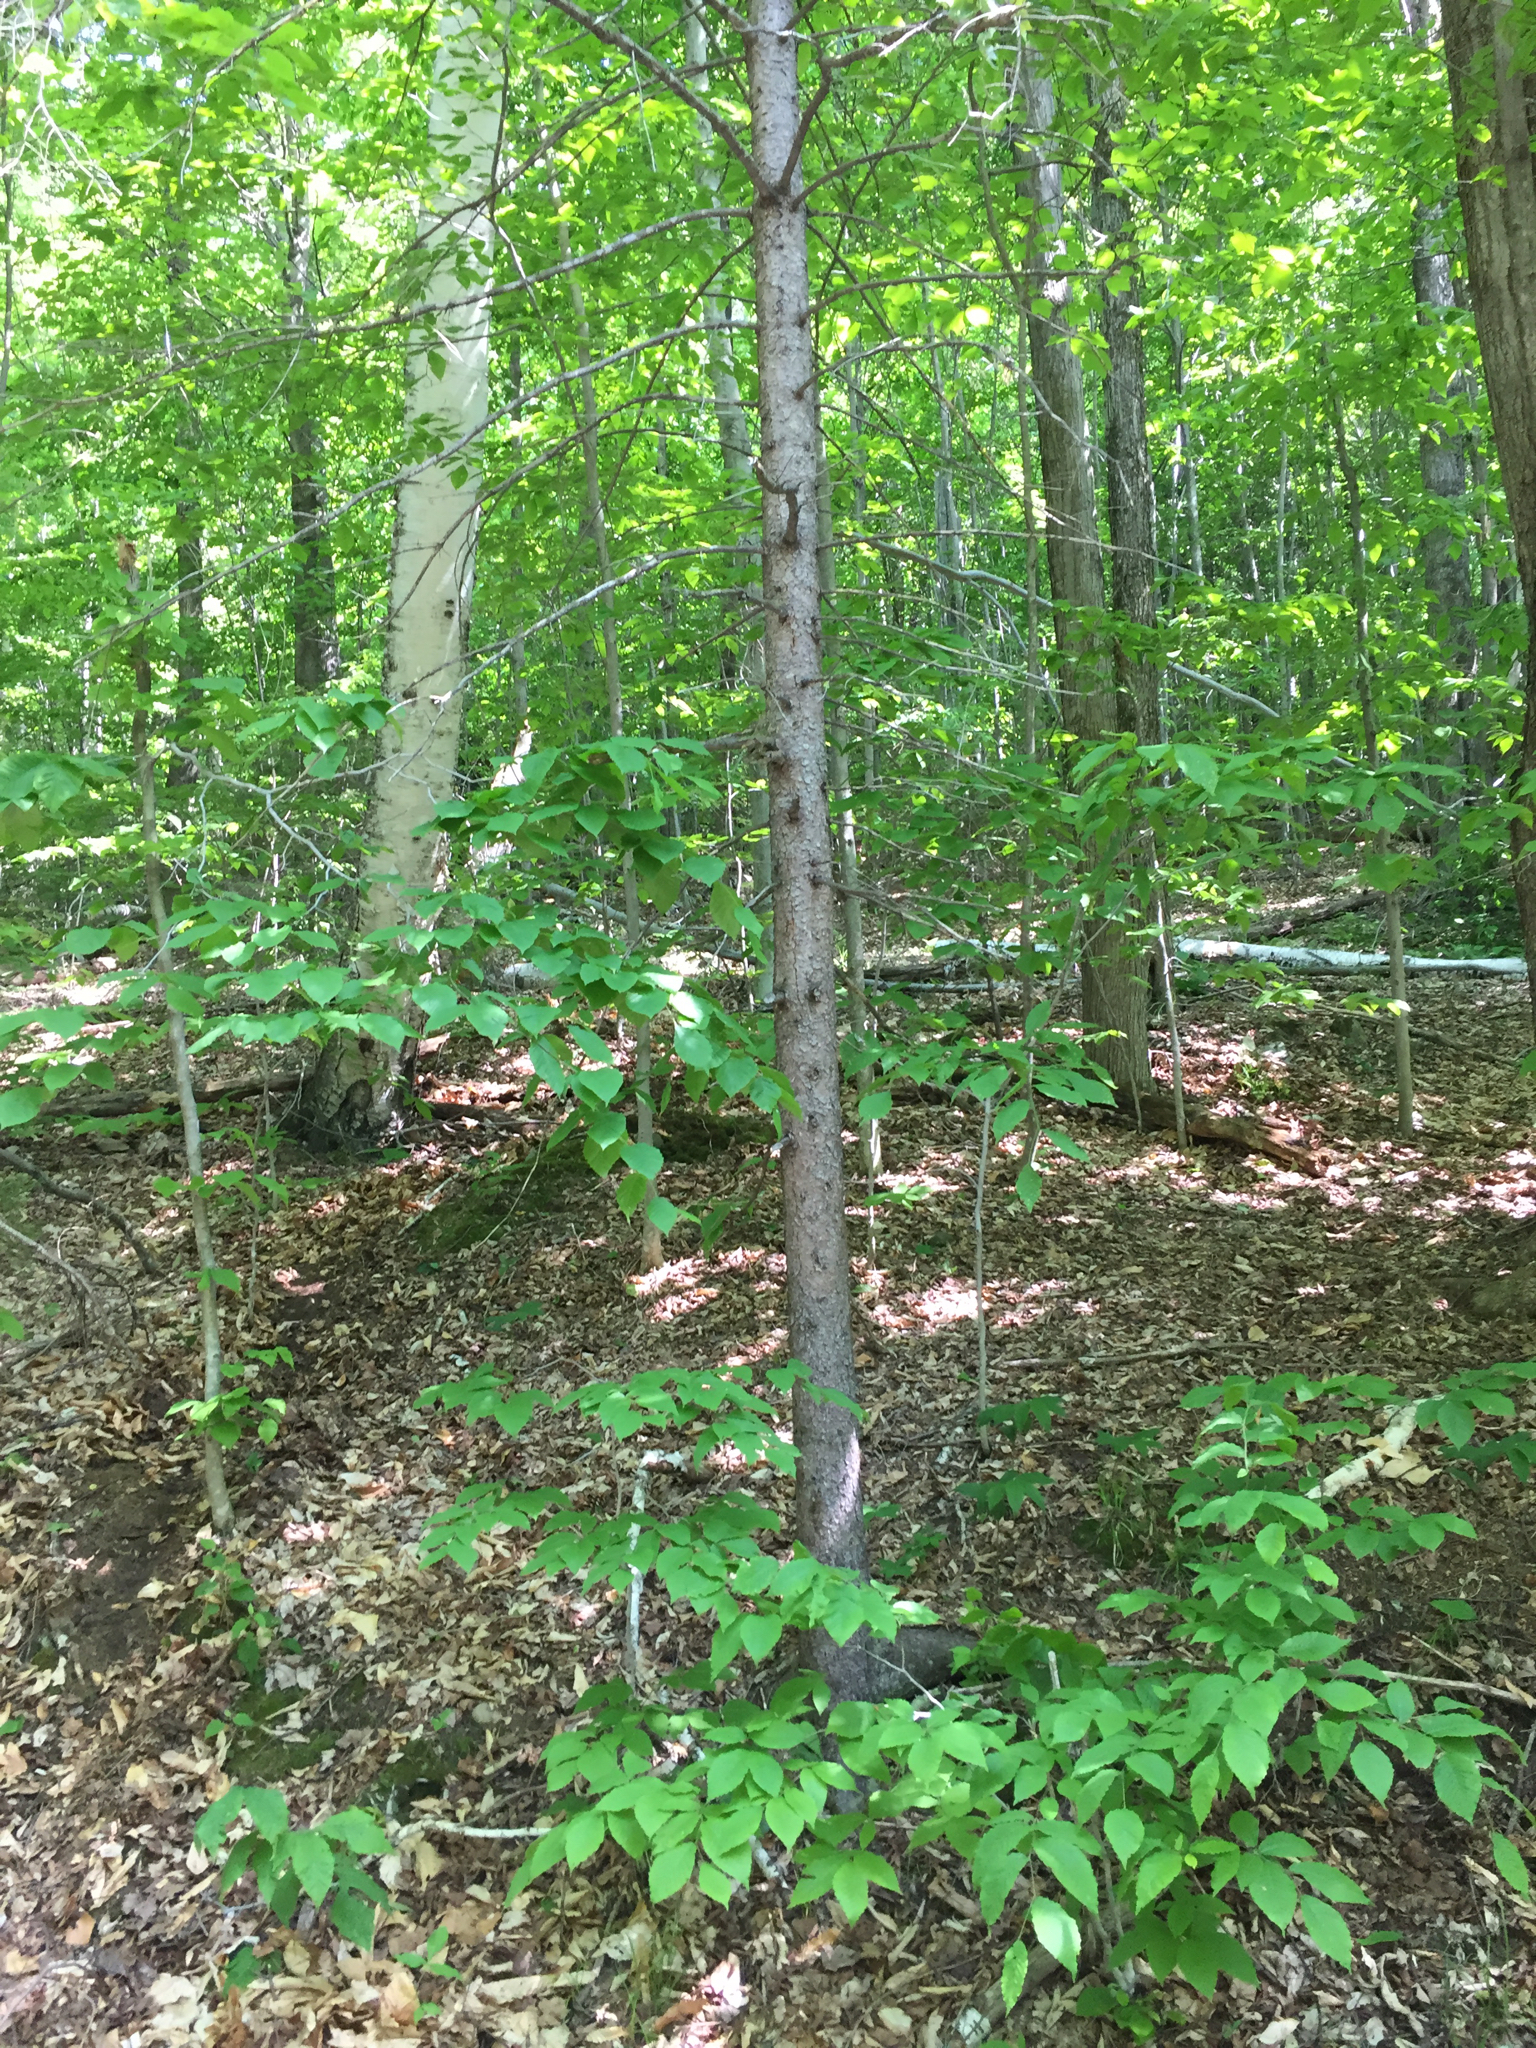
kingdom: Plantae
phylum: Tracheophyta
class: Pinopsida
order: Pinales
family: Pinaceae
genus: Picea
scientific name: Picea rubens
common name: Red spruce
